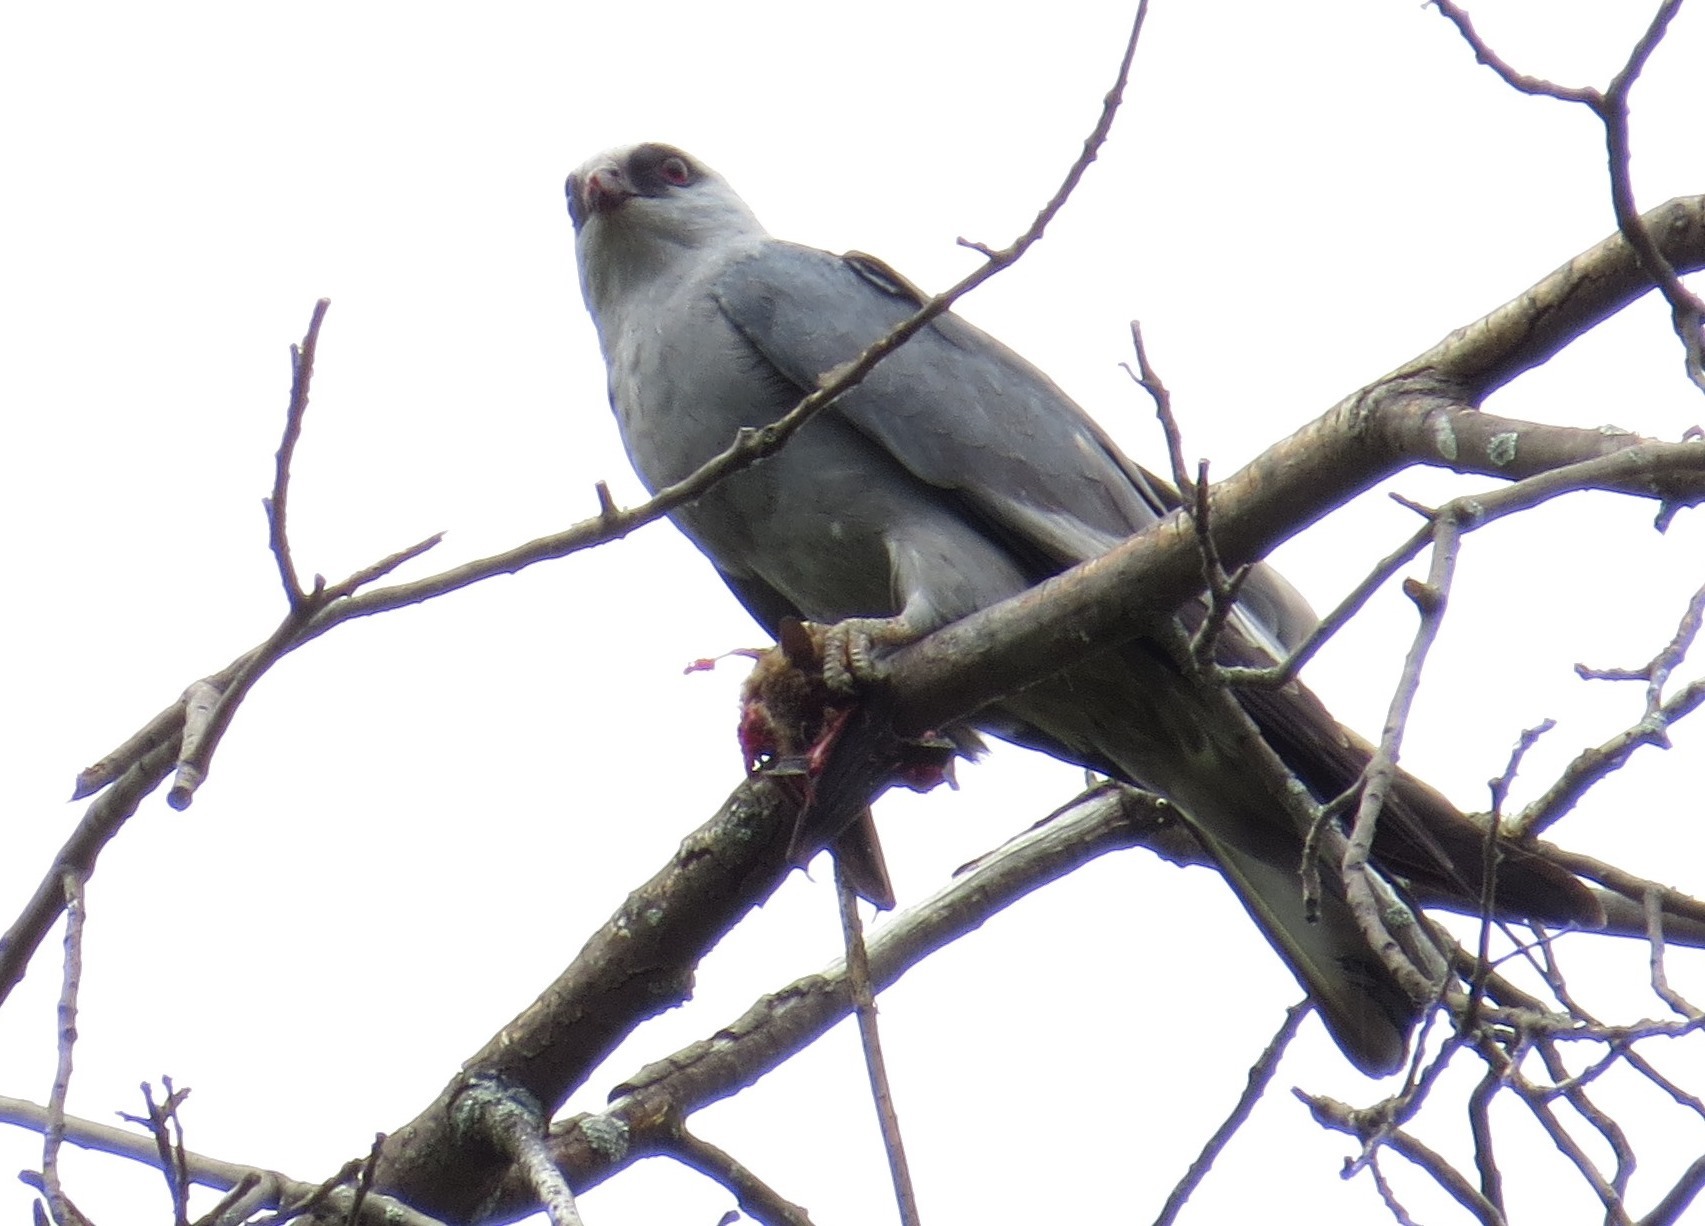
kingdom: Animalia
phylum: Chordata
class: Aves
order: Accipitriformes
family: Accipitridae
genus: Ictinia
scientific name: Ictinia mississippiensis
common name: Mississippi kite
